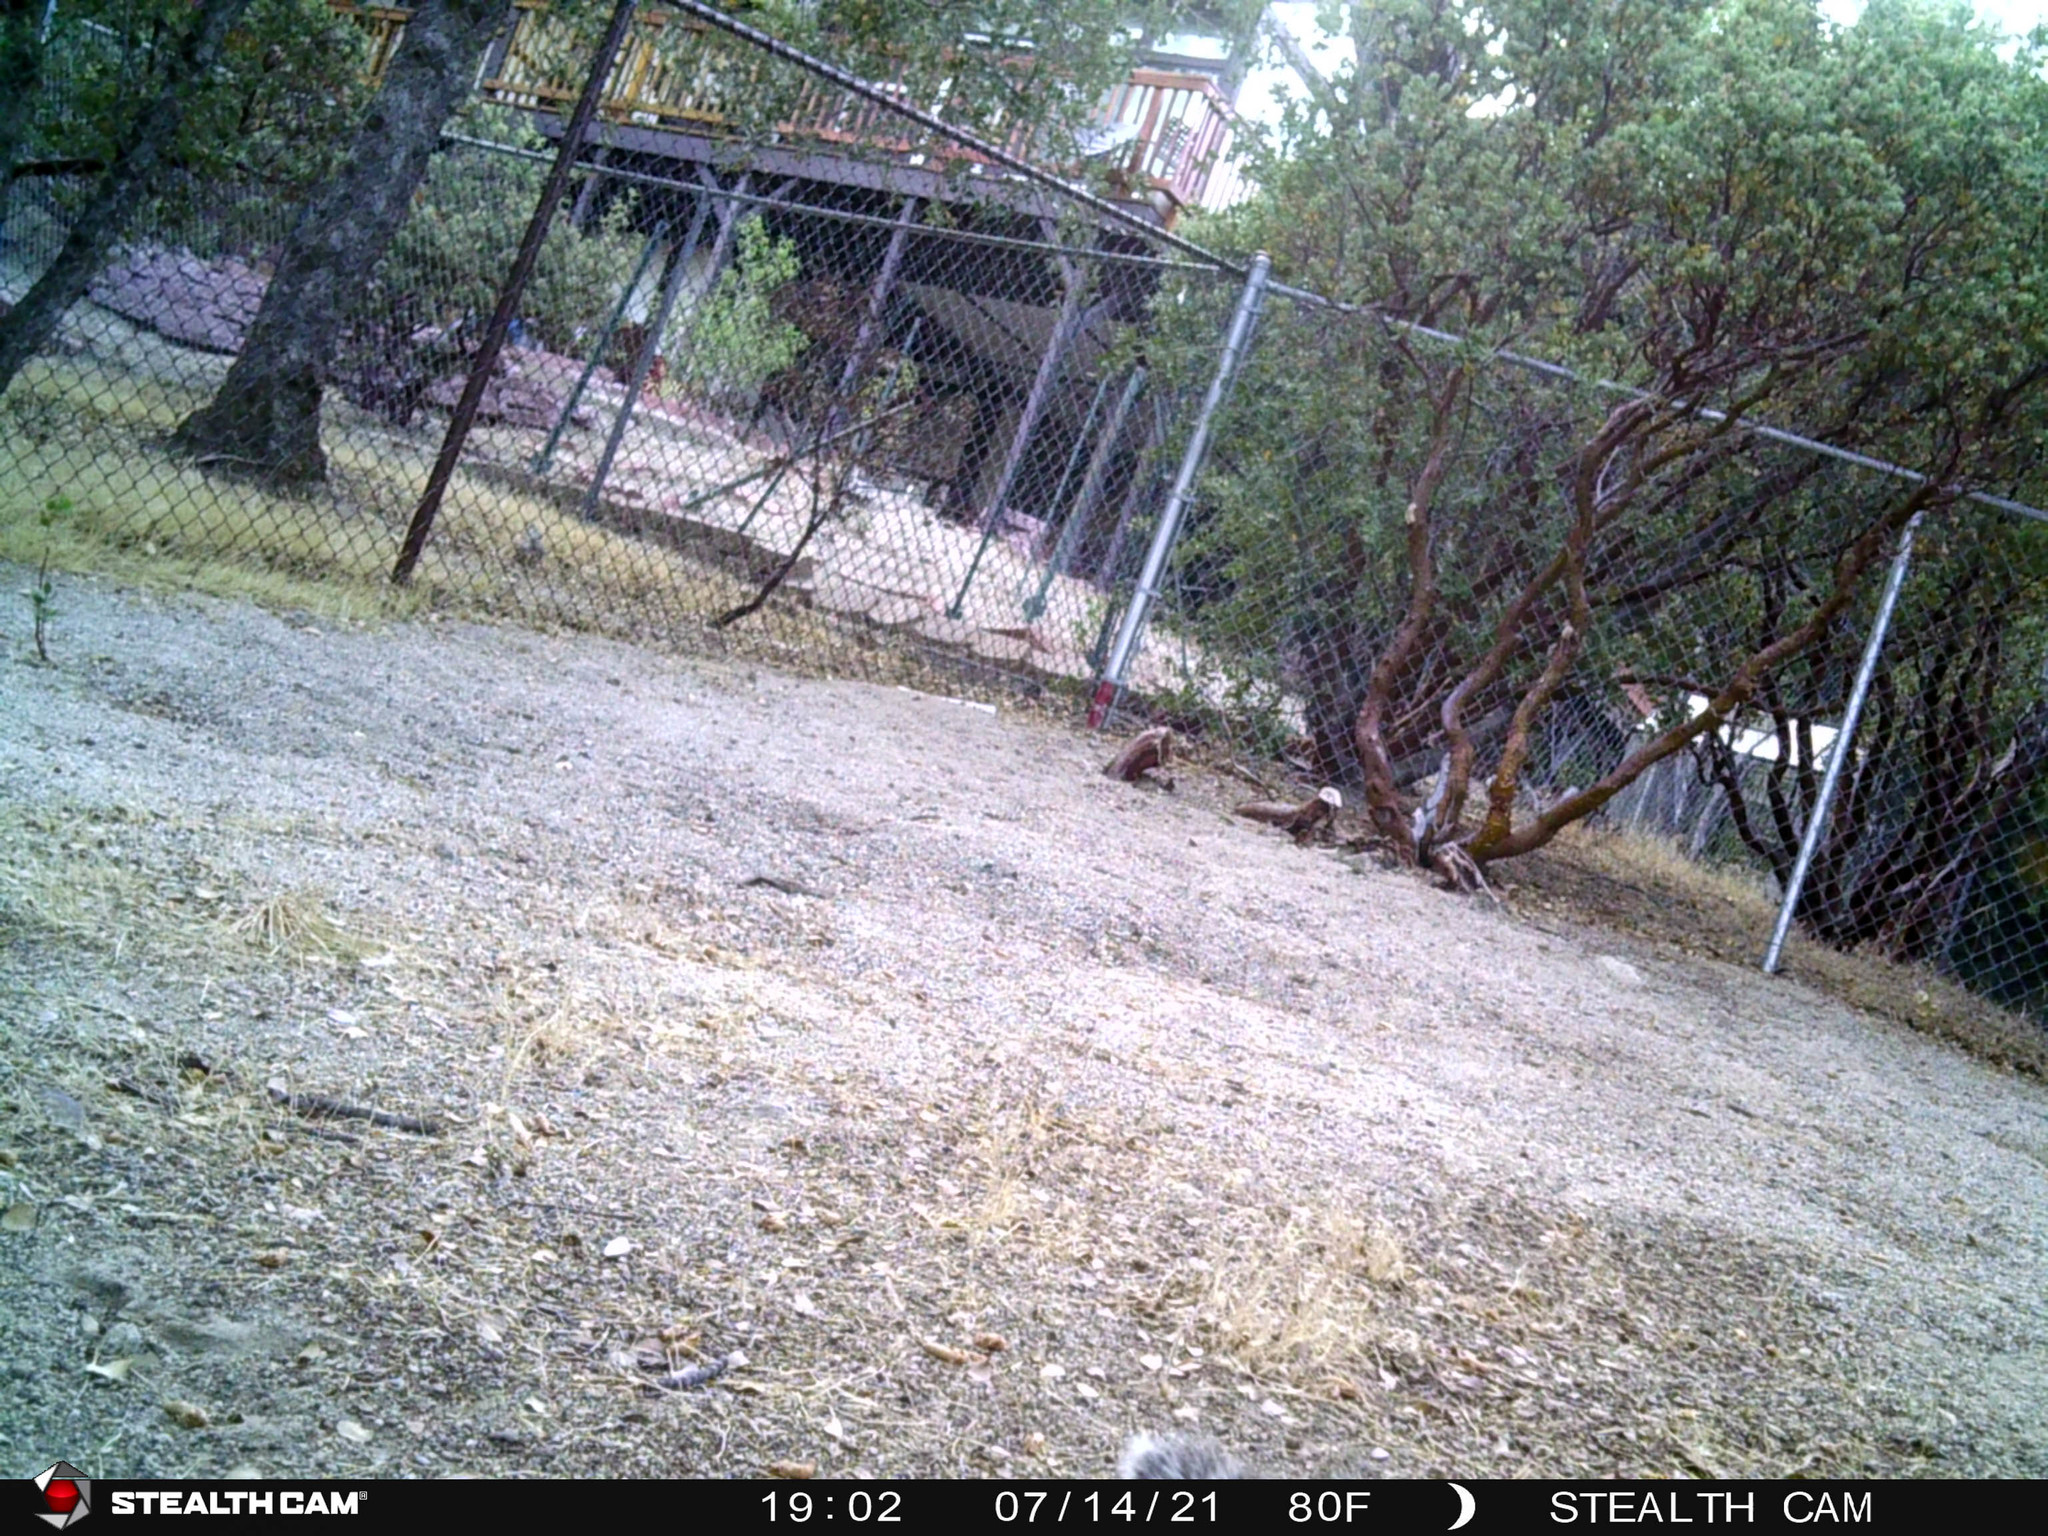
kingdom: Animalia
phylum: Chordata
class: Mammalia
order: Rodentia
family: Sciuridae
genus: Sciurus
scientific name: Sciurus griseus
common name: Western gray squirrel
